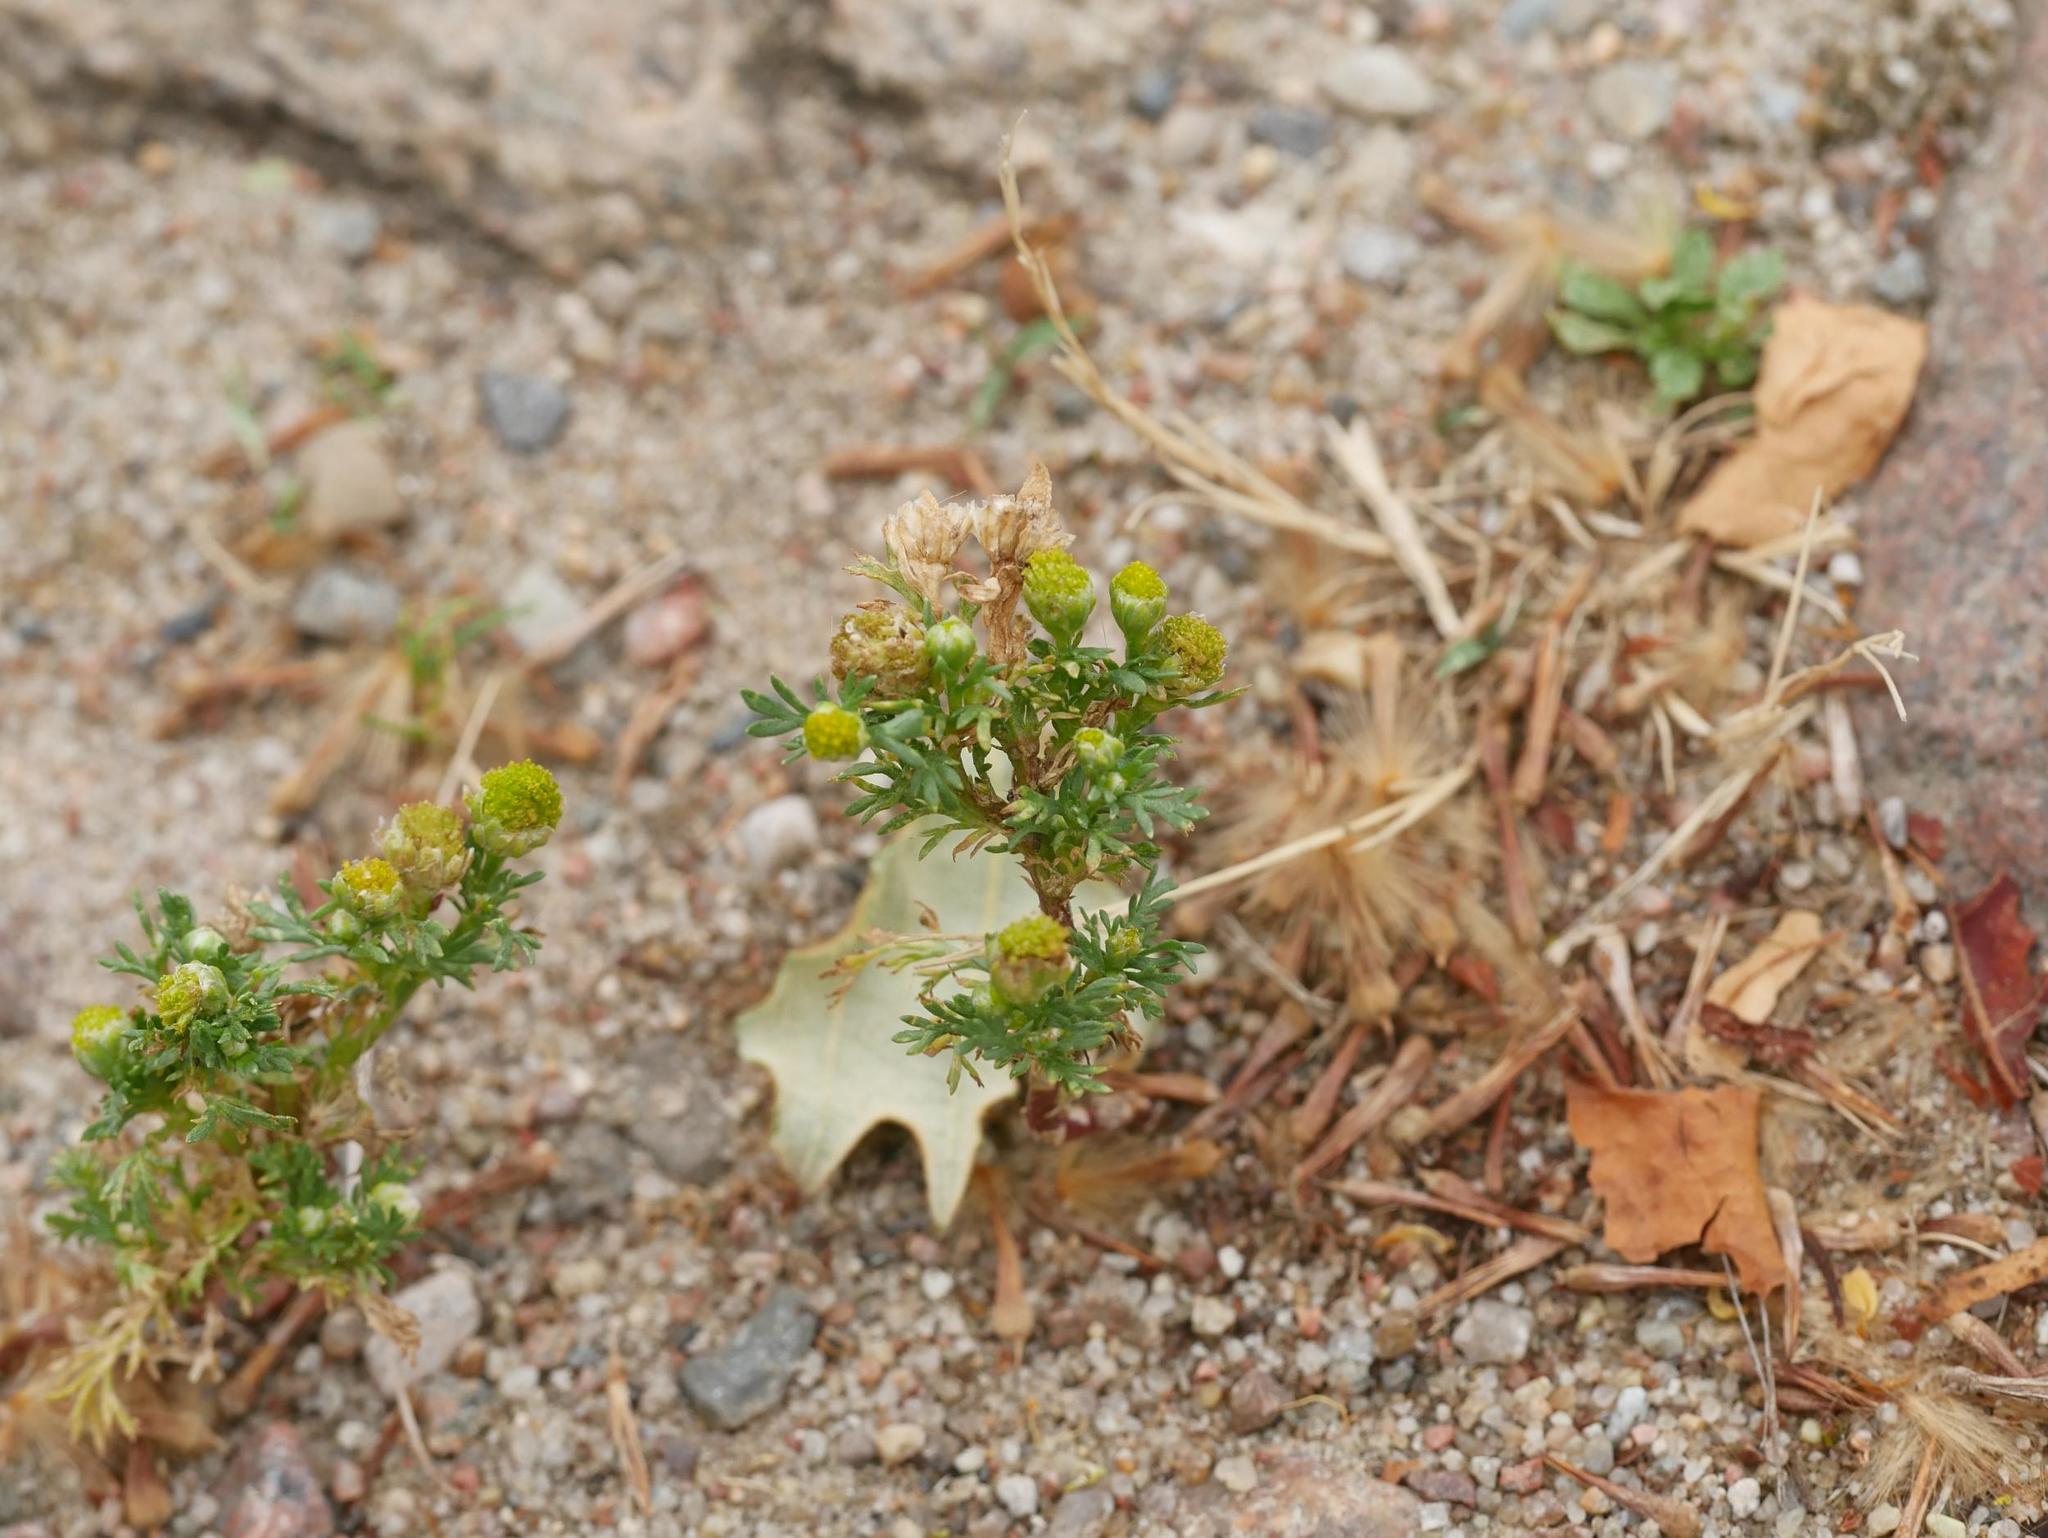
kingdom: Plantae
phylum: Tracheophyta
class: Magnoliopsida
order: Asterales
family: Asteraceae
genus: Matricaria
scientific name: Matricaria discoidea
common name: Disc mayweed
